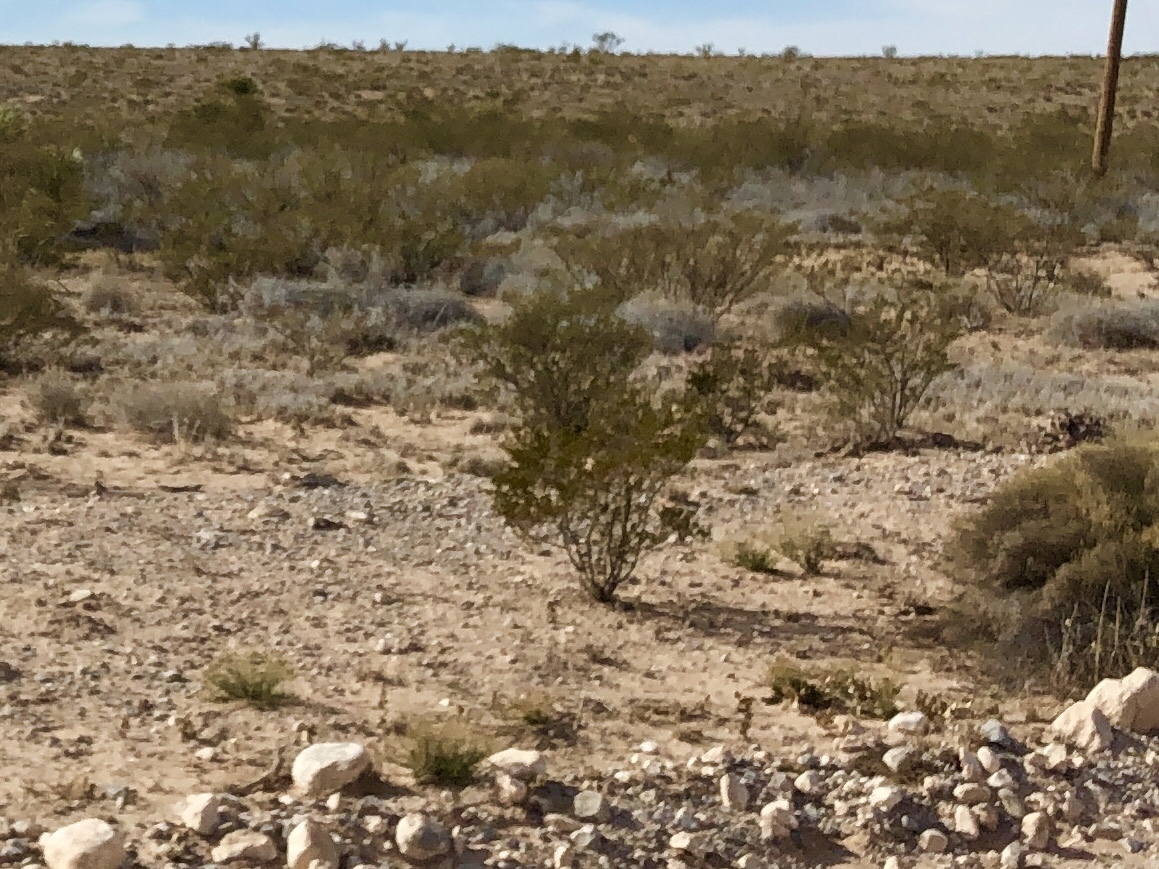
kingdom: Plantae
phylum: Tracheophyta
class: Magnoliopsida
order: Zygophyllales
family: Zygophyllaceae
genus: Larrea
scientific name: Larrea tridentata
